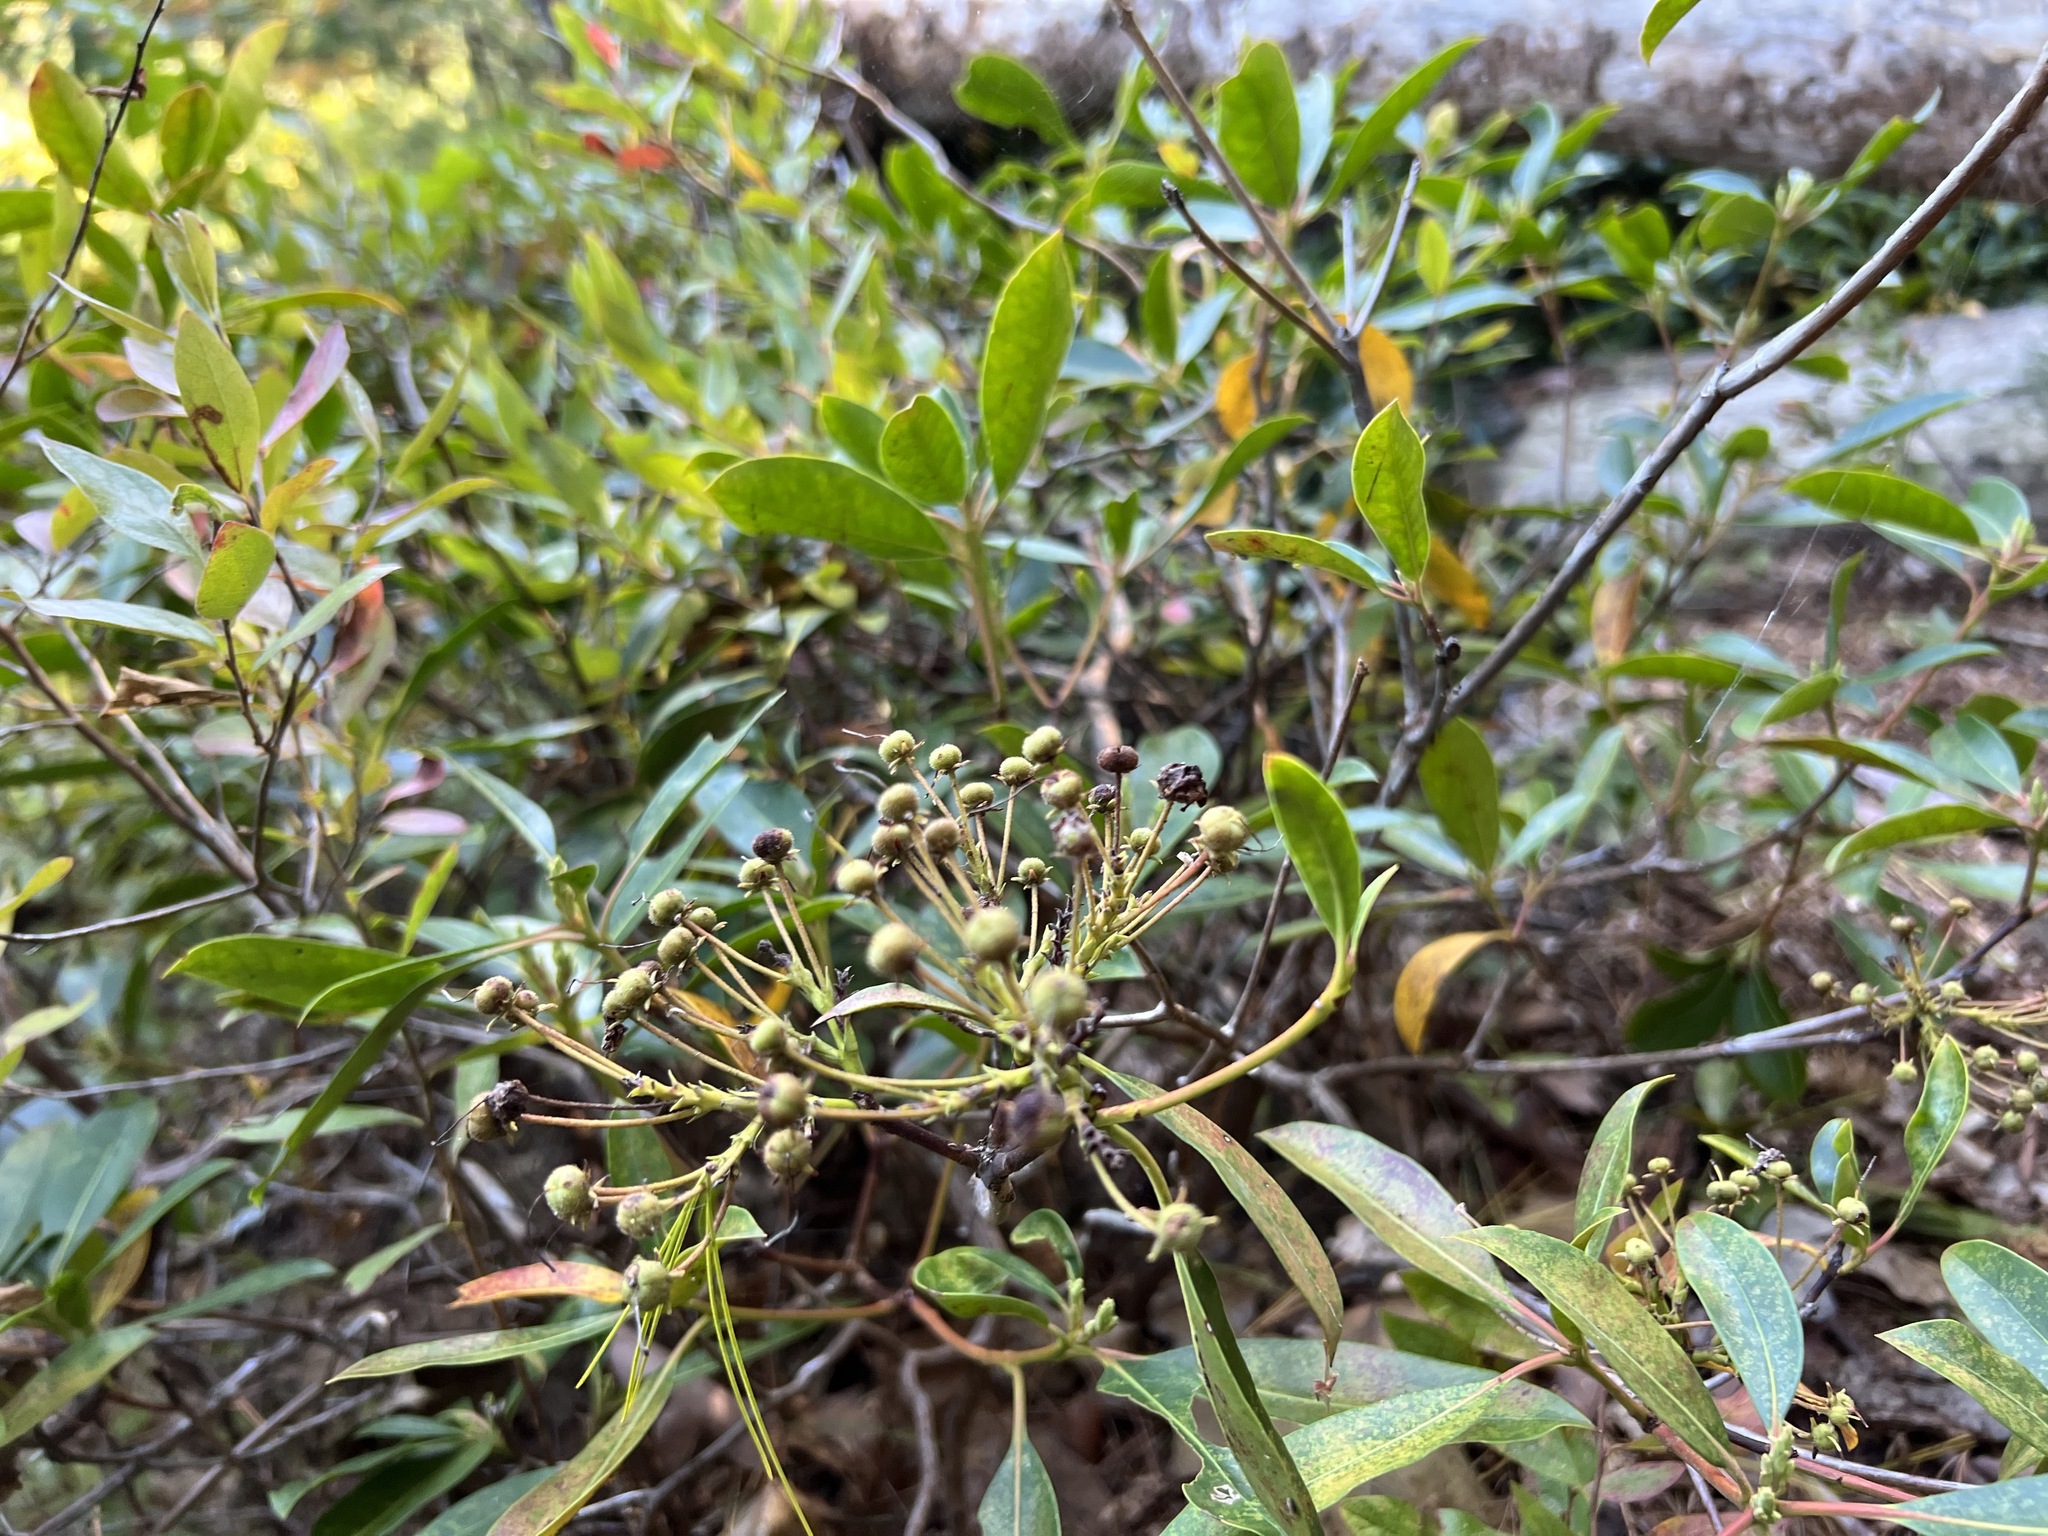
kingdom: Plantae
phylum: Tracheophyta
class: Magnoliopsida
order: Ericales
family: Ericaceae
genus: Kalmia
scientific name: Kalmia latifolia
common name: Mountain-laurel
